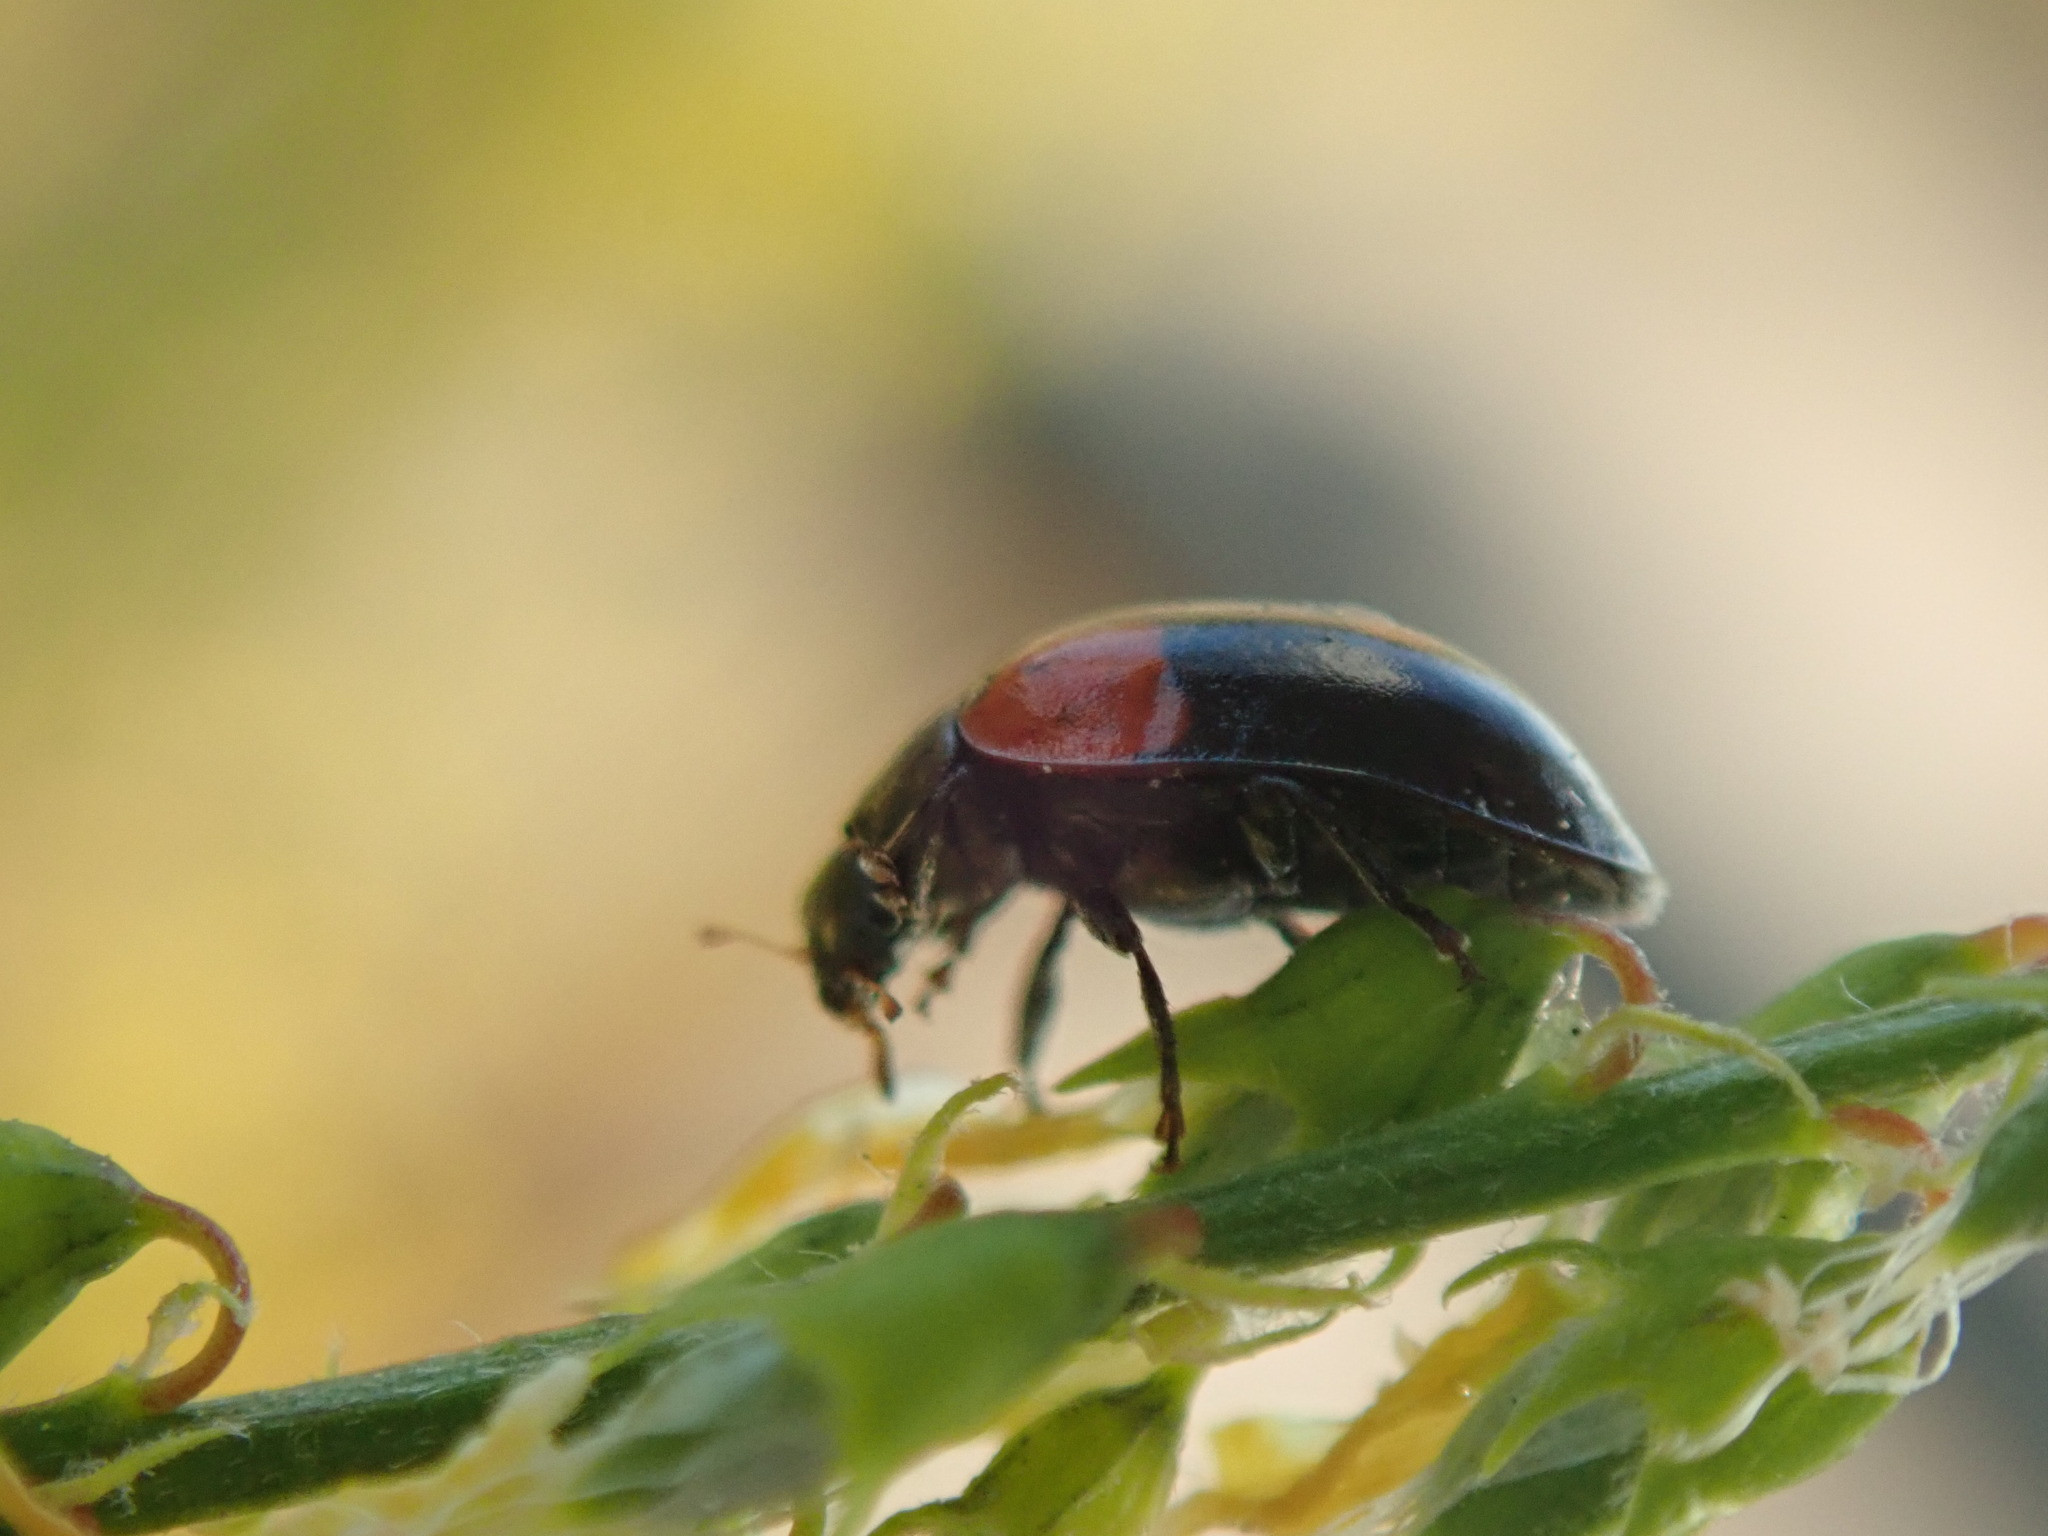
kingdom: Animalia
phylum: Arthropoda
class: Insecta
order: Coleoptera
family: Coccinellidae
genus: Adalia
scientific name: Adalia bipunctata
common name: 2-spot ladybird
